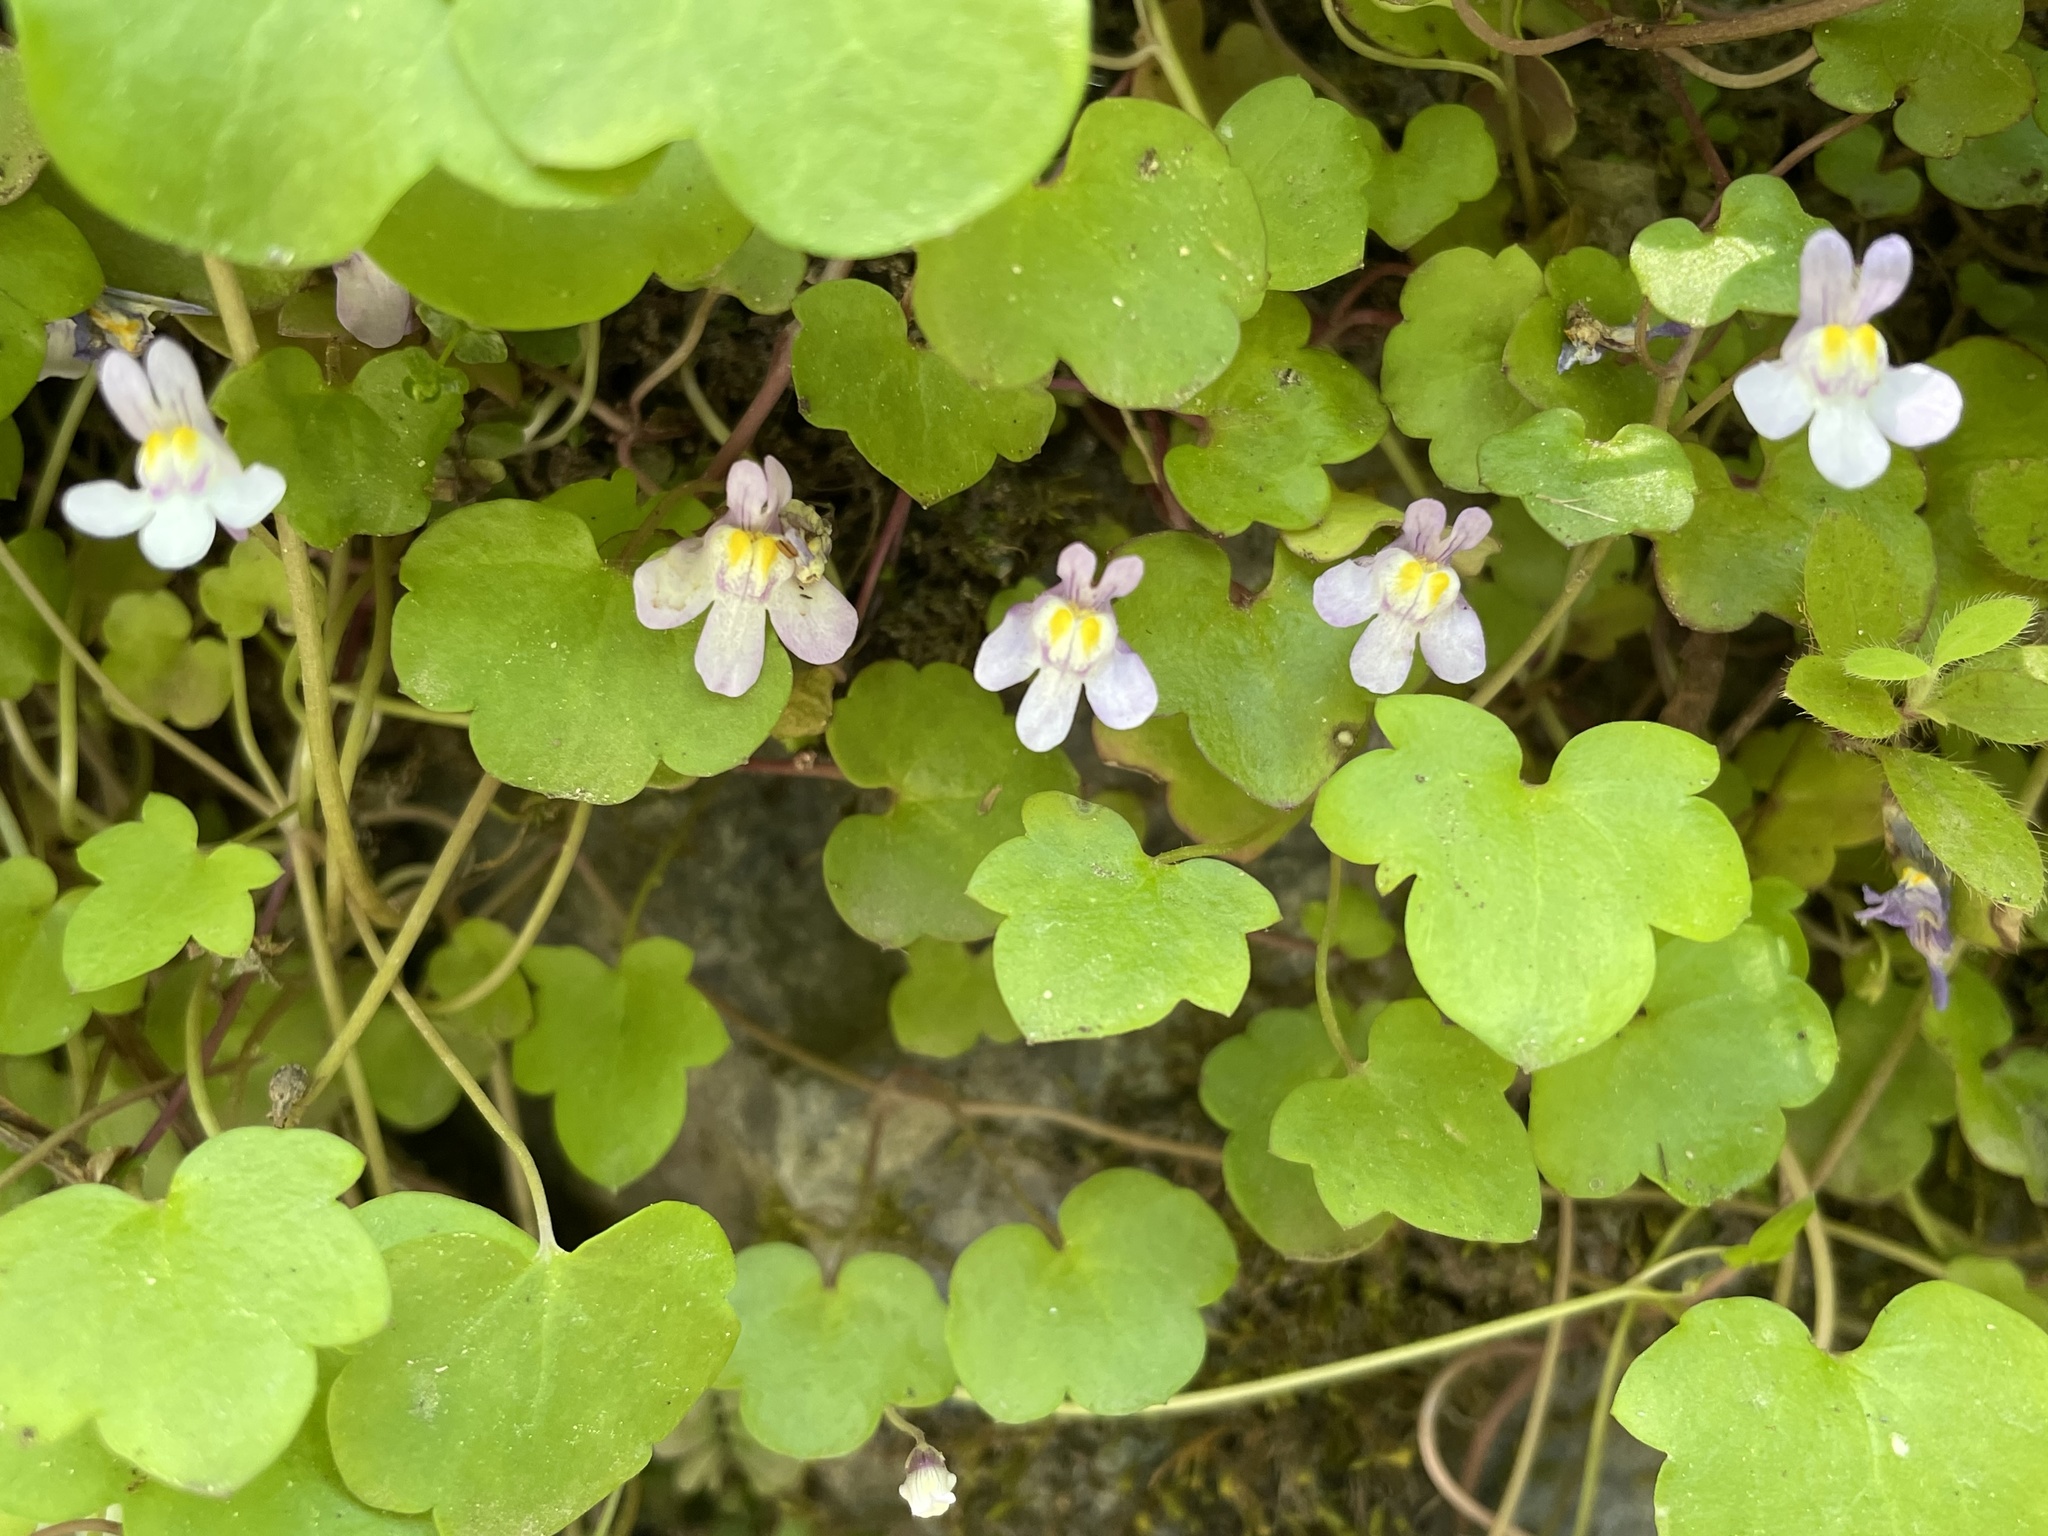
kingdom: Plantae
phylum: Tracheophyta
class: Magnoliopsida
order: Lamiales
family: Plantaginaceae
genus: Cymbalaria
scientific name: Cymbalaria muralis
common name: Ivy-leaved toadflax
